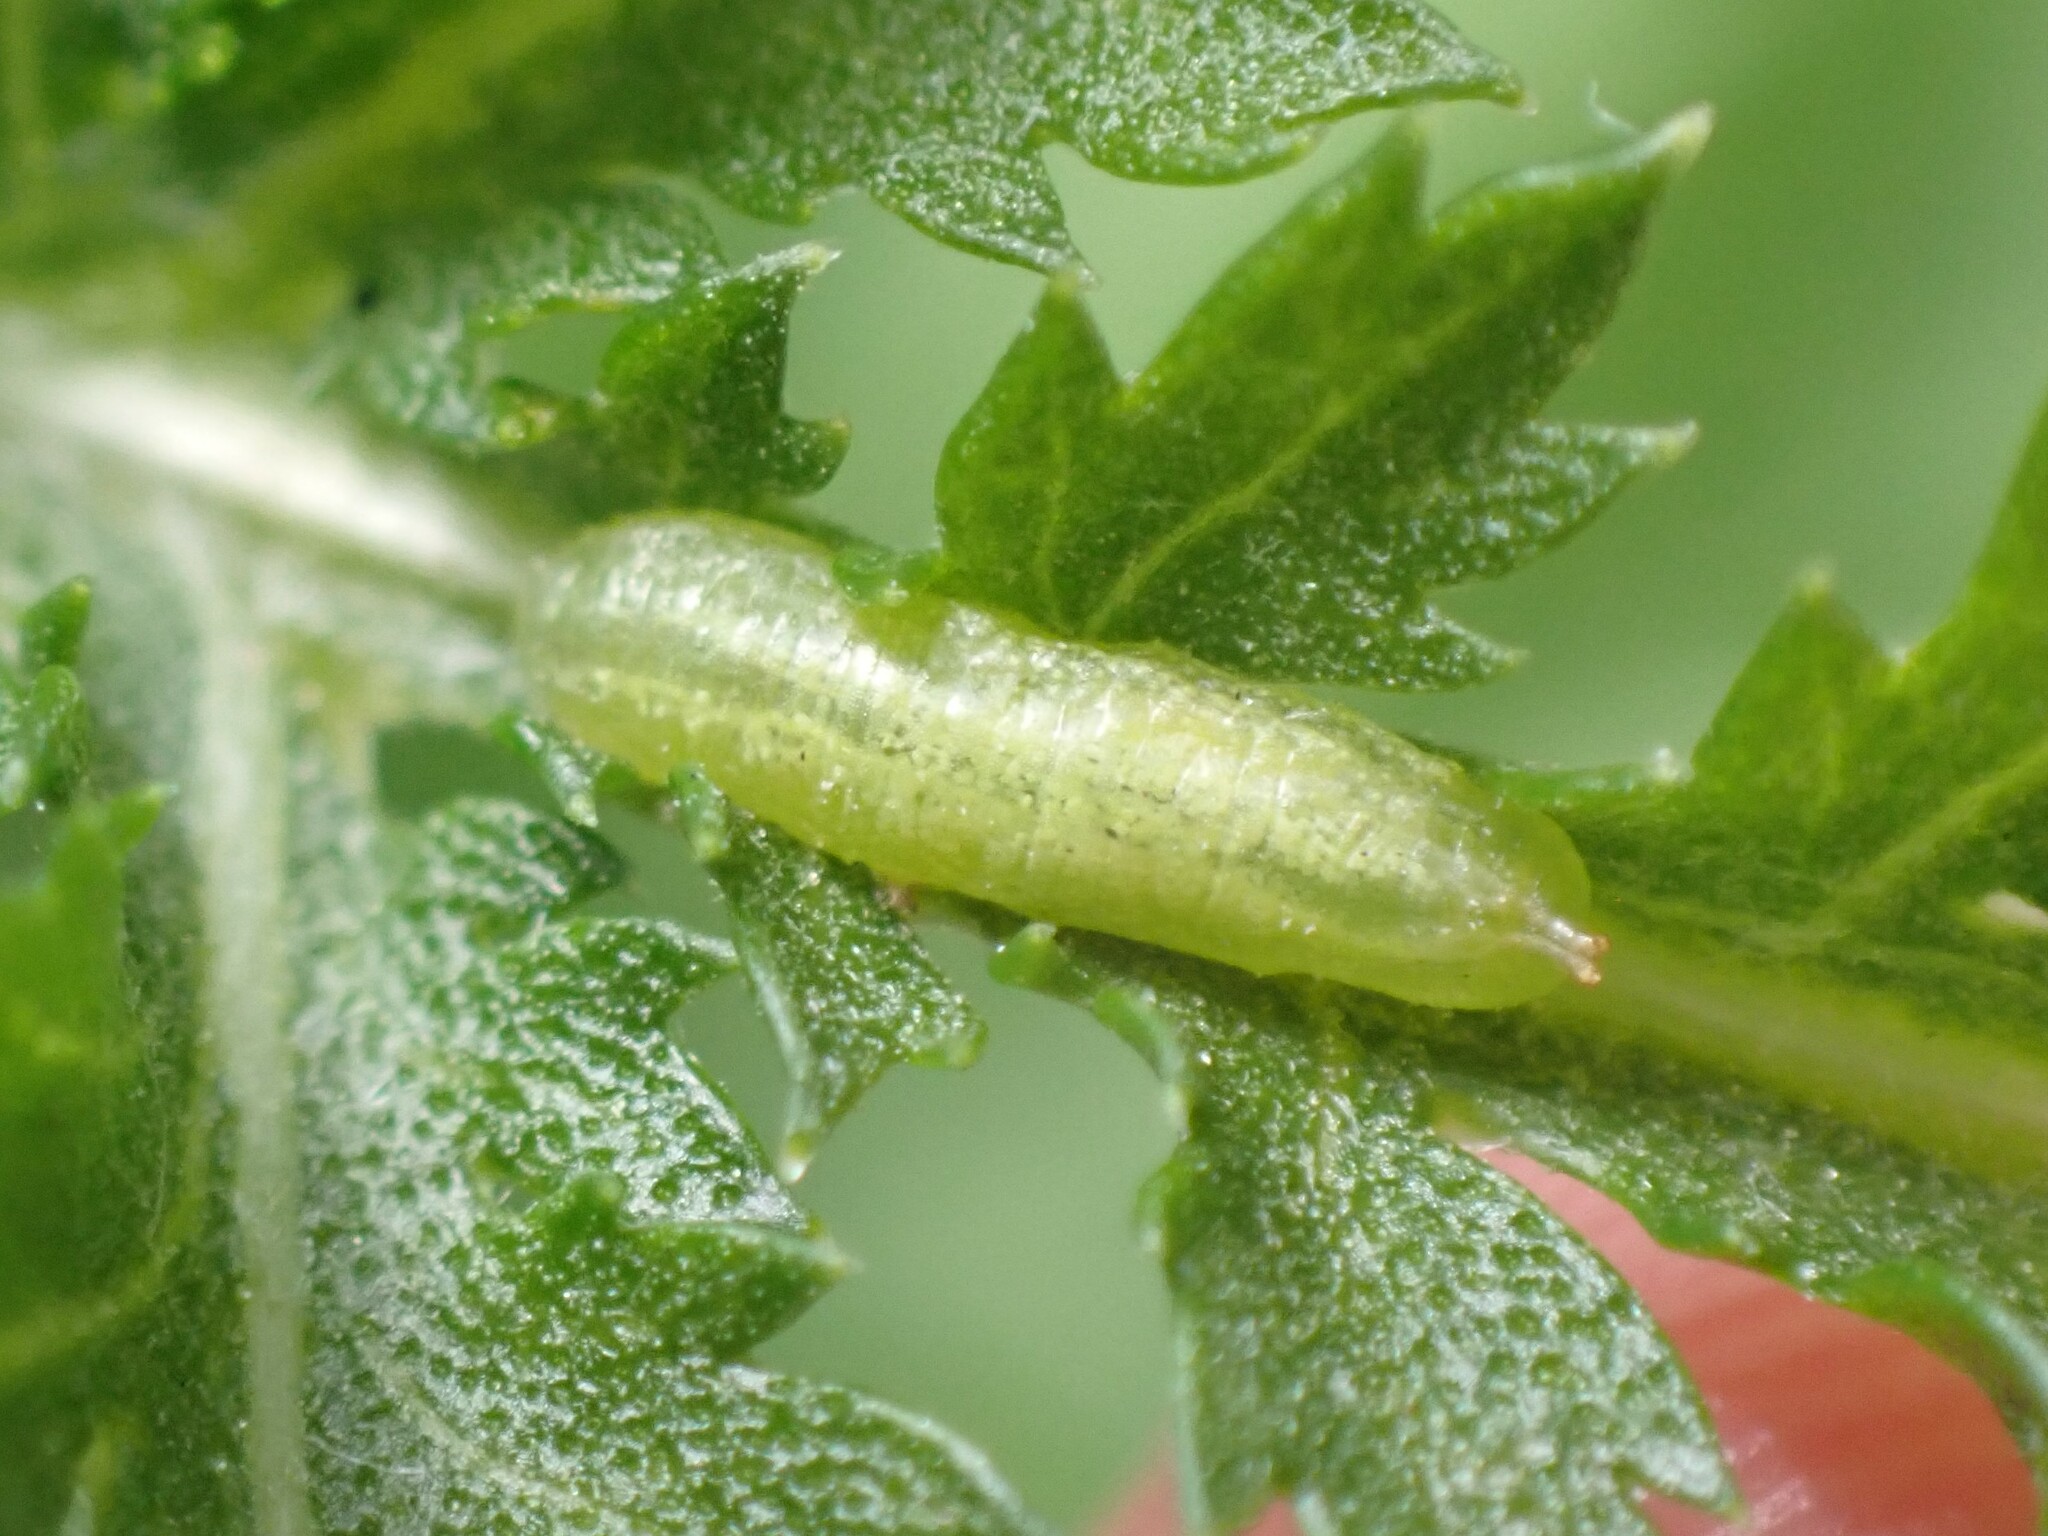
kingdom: Animalia
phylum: Arthropoda
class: Insecta
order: Diptera
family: Syrphidae
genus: Allograpta
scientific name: Allograpta
